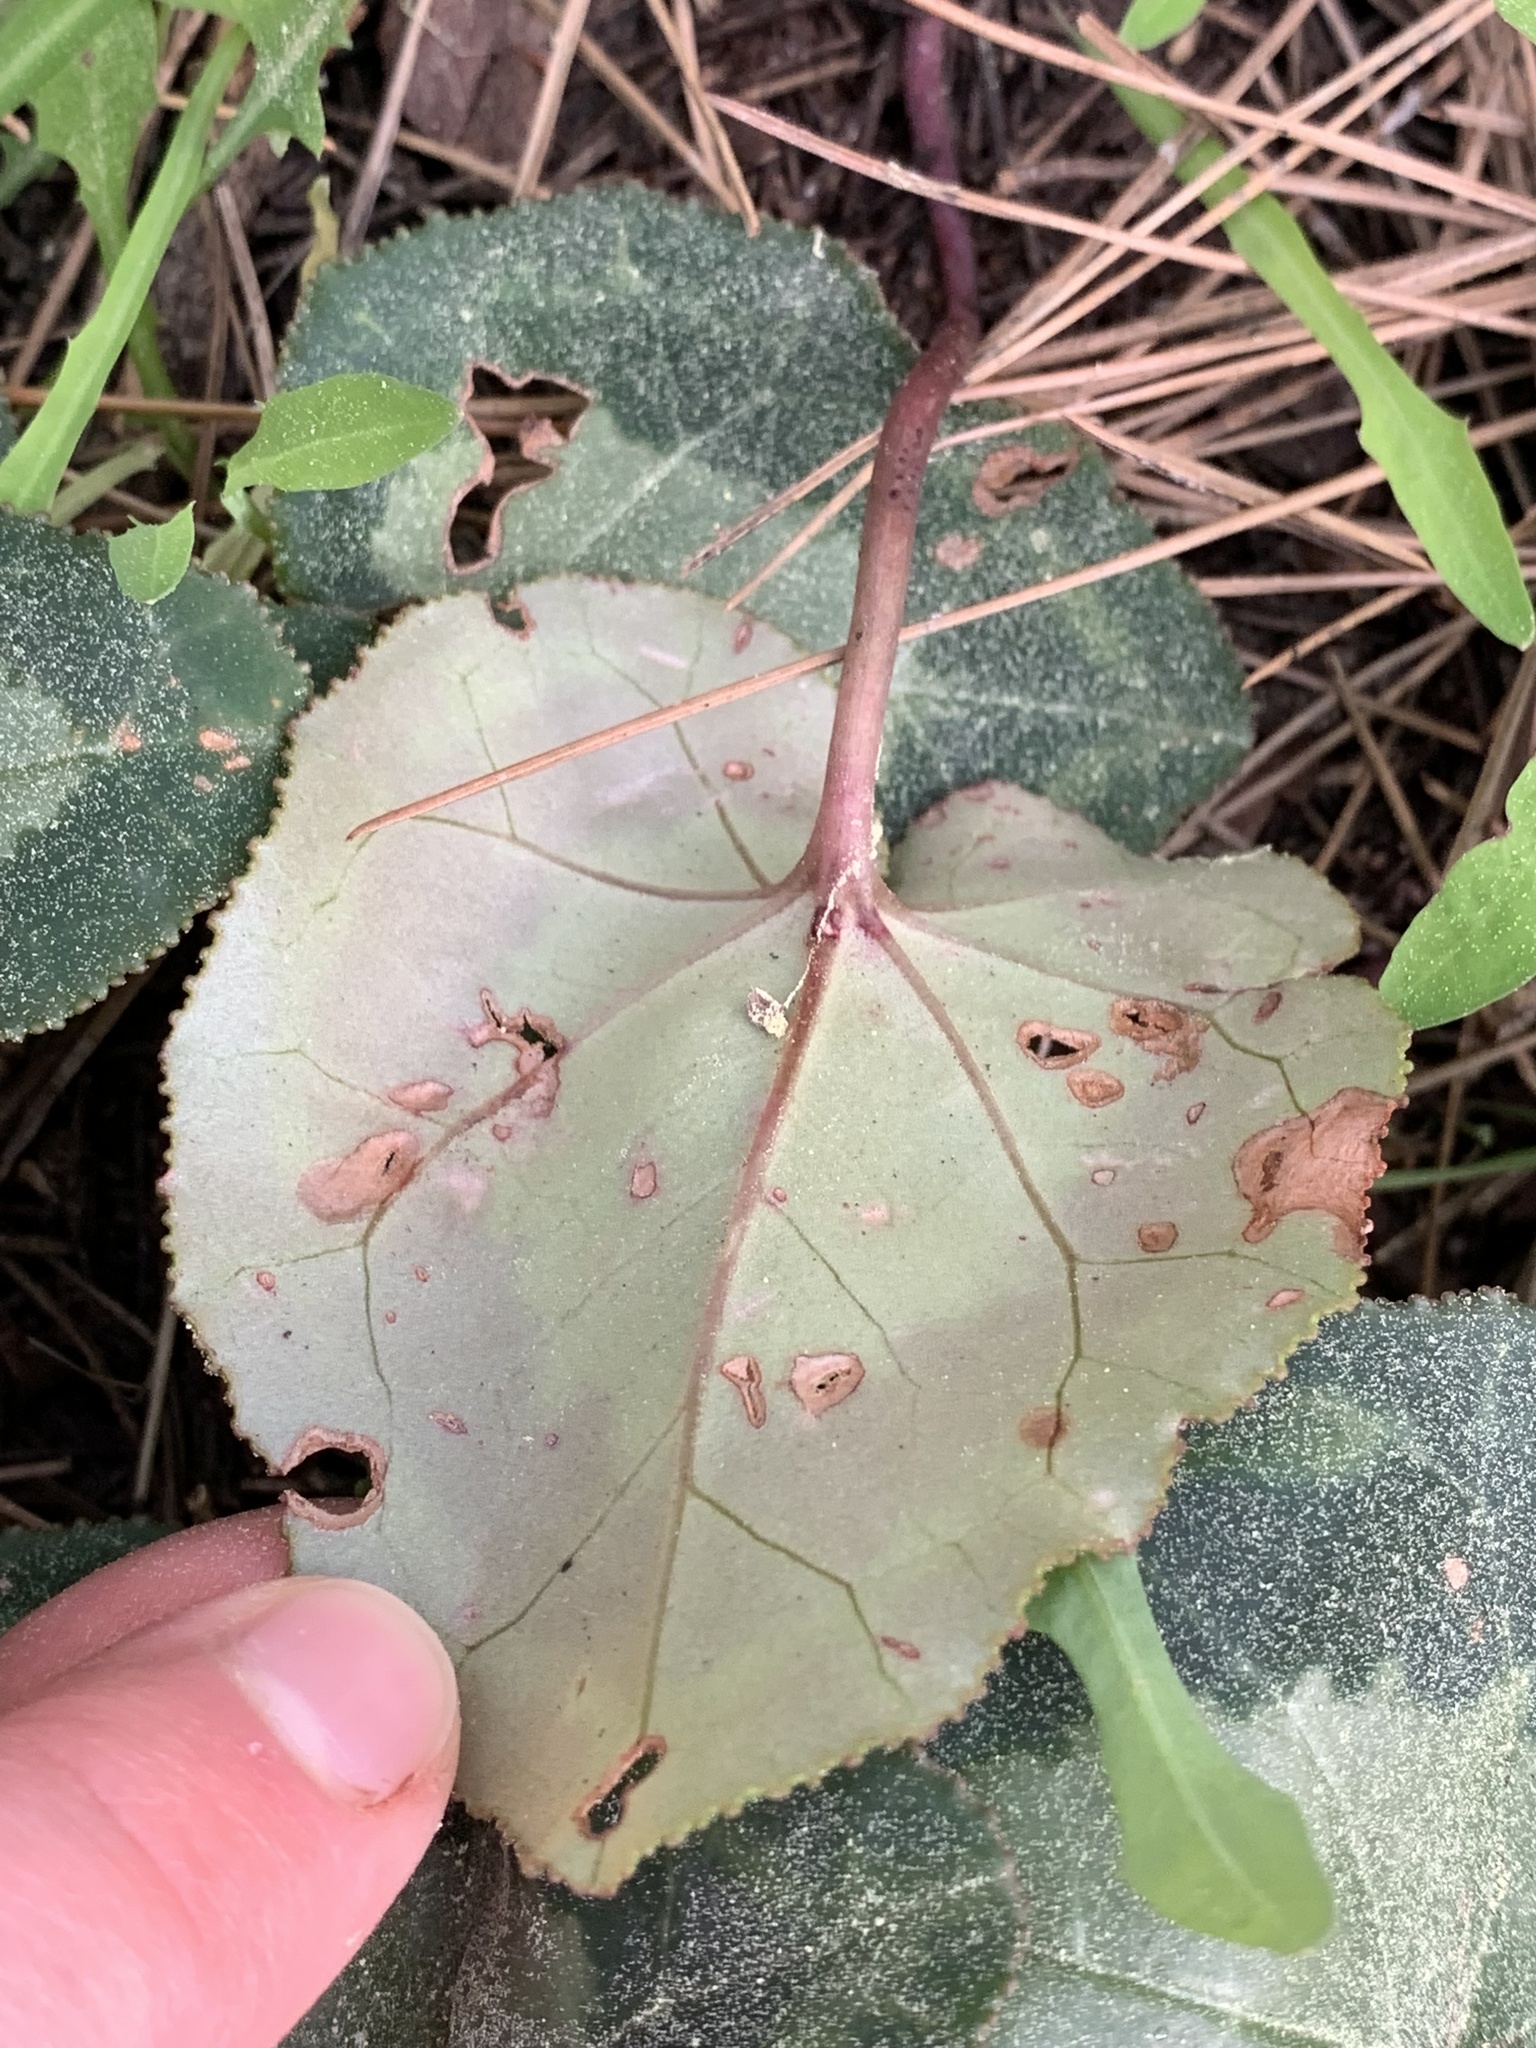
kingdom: Plantae
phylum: Tracheophyta
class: Magnoliopsida
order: Ericales
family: Primulaceae
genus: Cyclamen
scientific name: Cyclamen graecum
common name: Greek cyclamen
